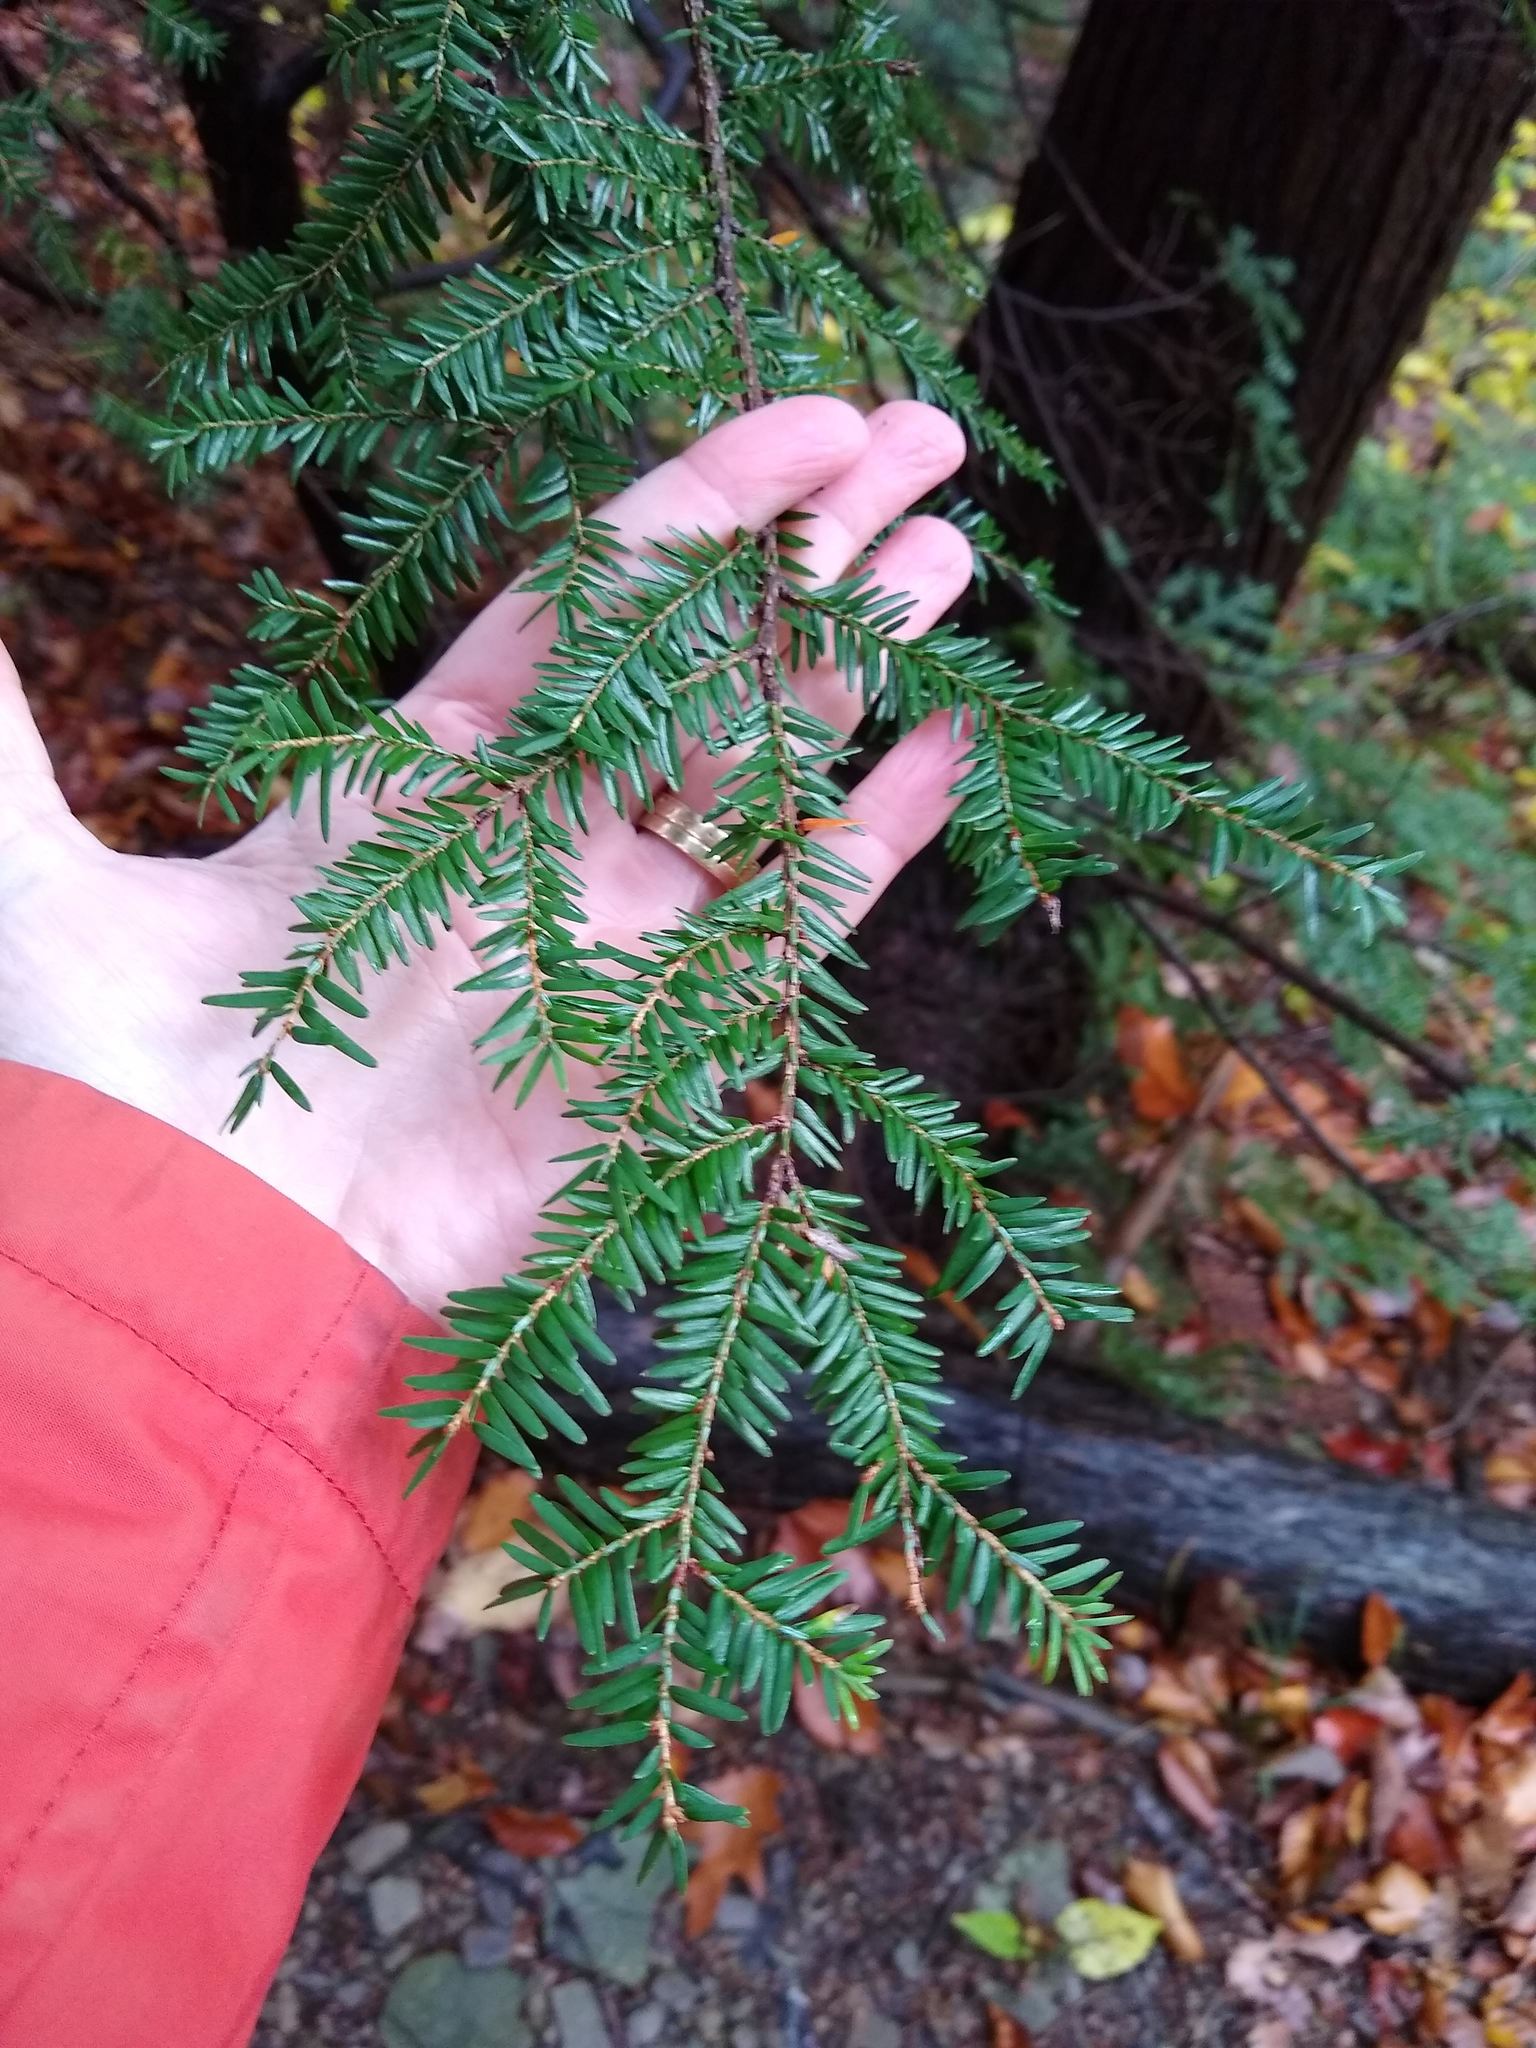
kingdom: Plantae
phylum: Tracheophyta
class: Pinopsida
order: Pinales
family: Pinaceae
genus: Tsuga
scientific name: Tsuga canadensis
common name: Eastern hemlock
